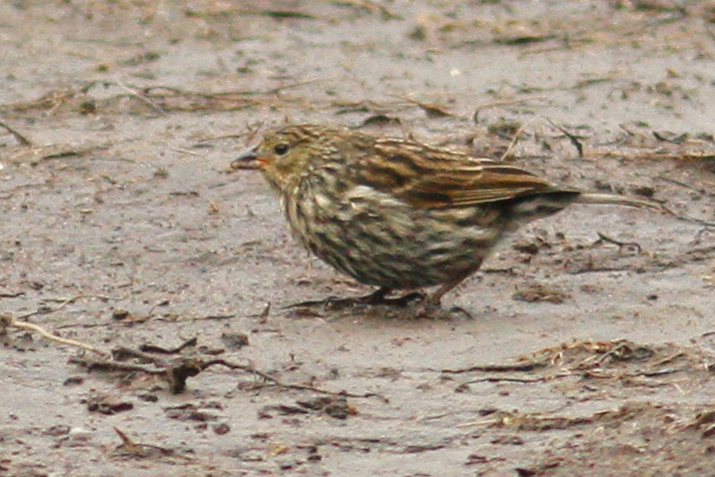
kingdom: Animalia
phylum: Chordata
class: Aves
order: Passeriformes
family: Thraupidae
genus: Geospizopsis
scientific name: Geospizopsis unicolor
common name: Plumbeous sierra-finch
